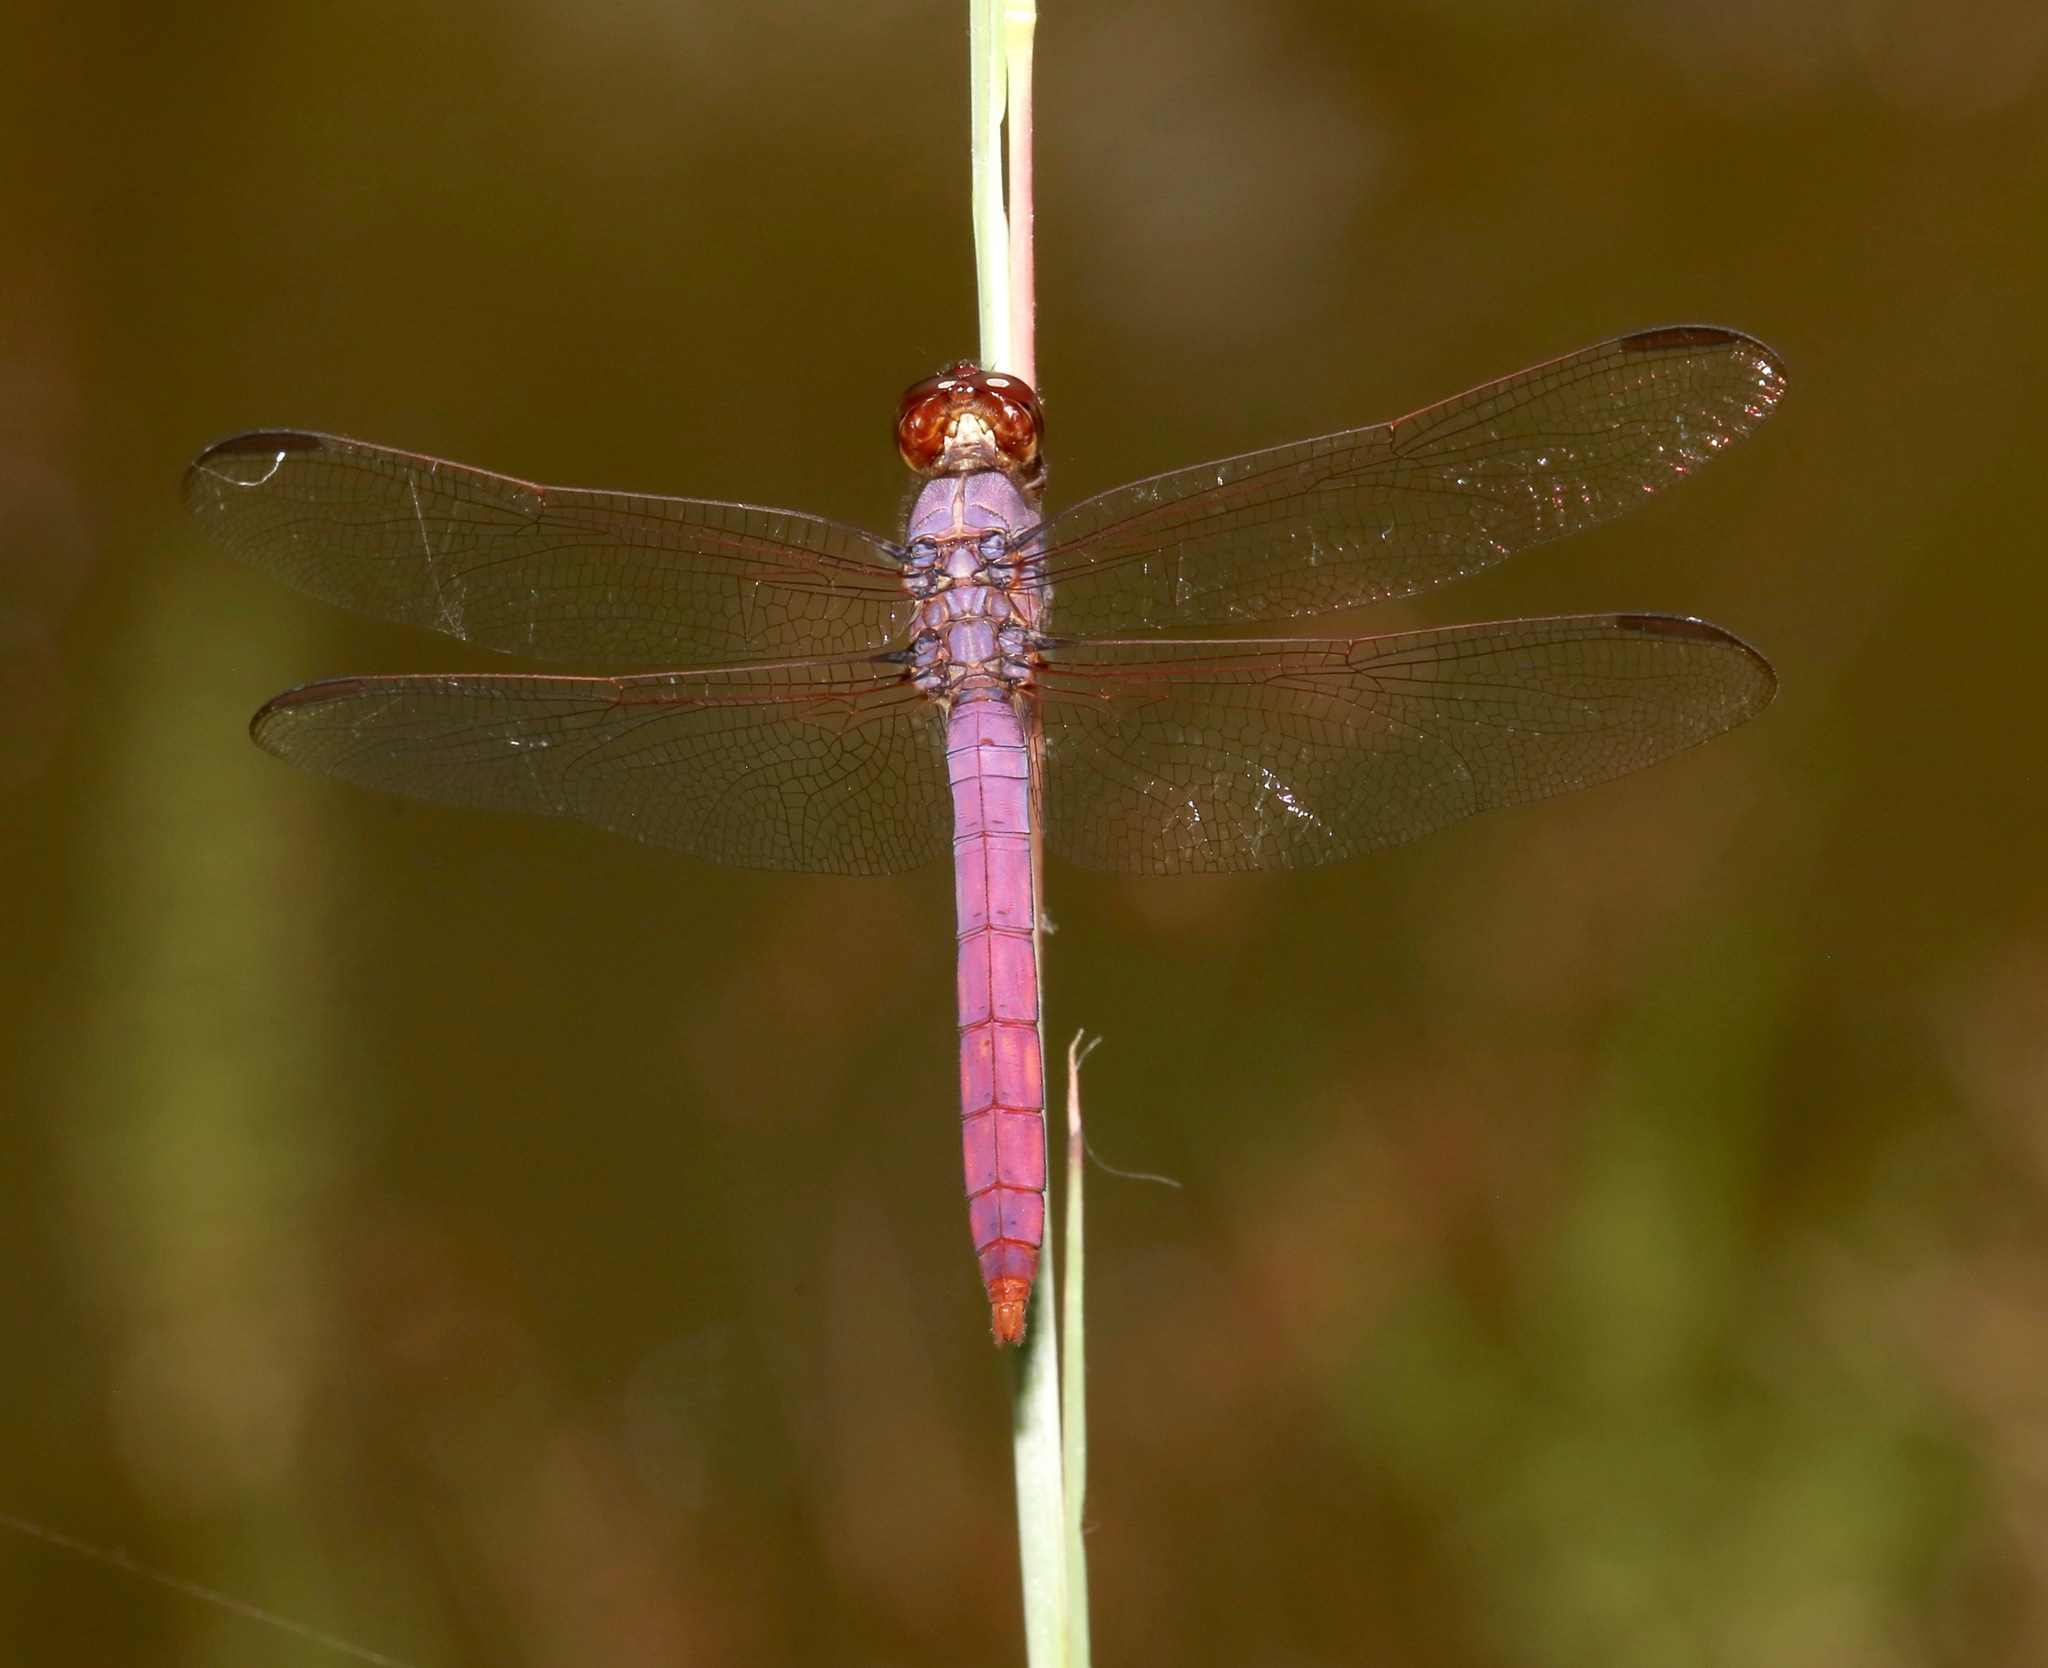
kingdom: Animalia
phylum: Arthropoda
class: Insecta
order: Odonata
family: Libellulidae
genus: Orthemis
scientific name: Orthemis ferruginea
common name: Roseate skimmer
